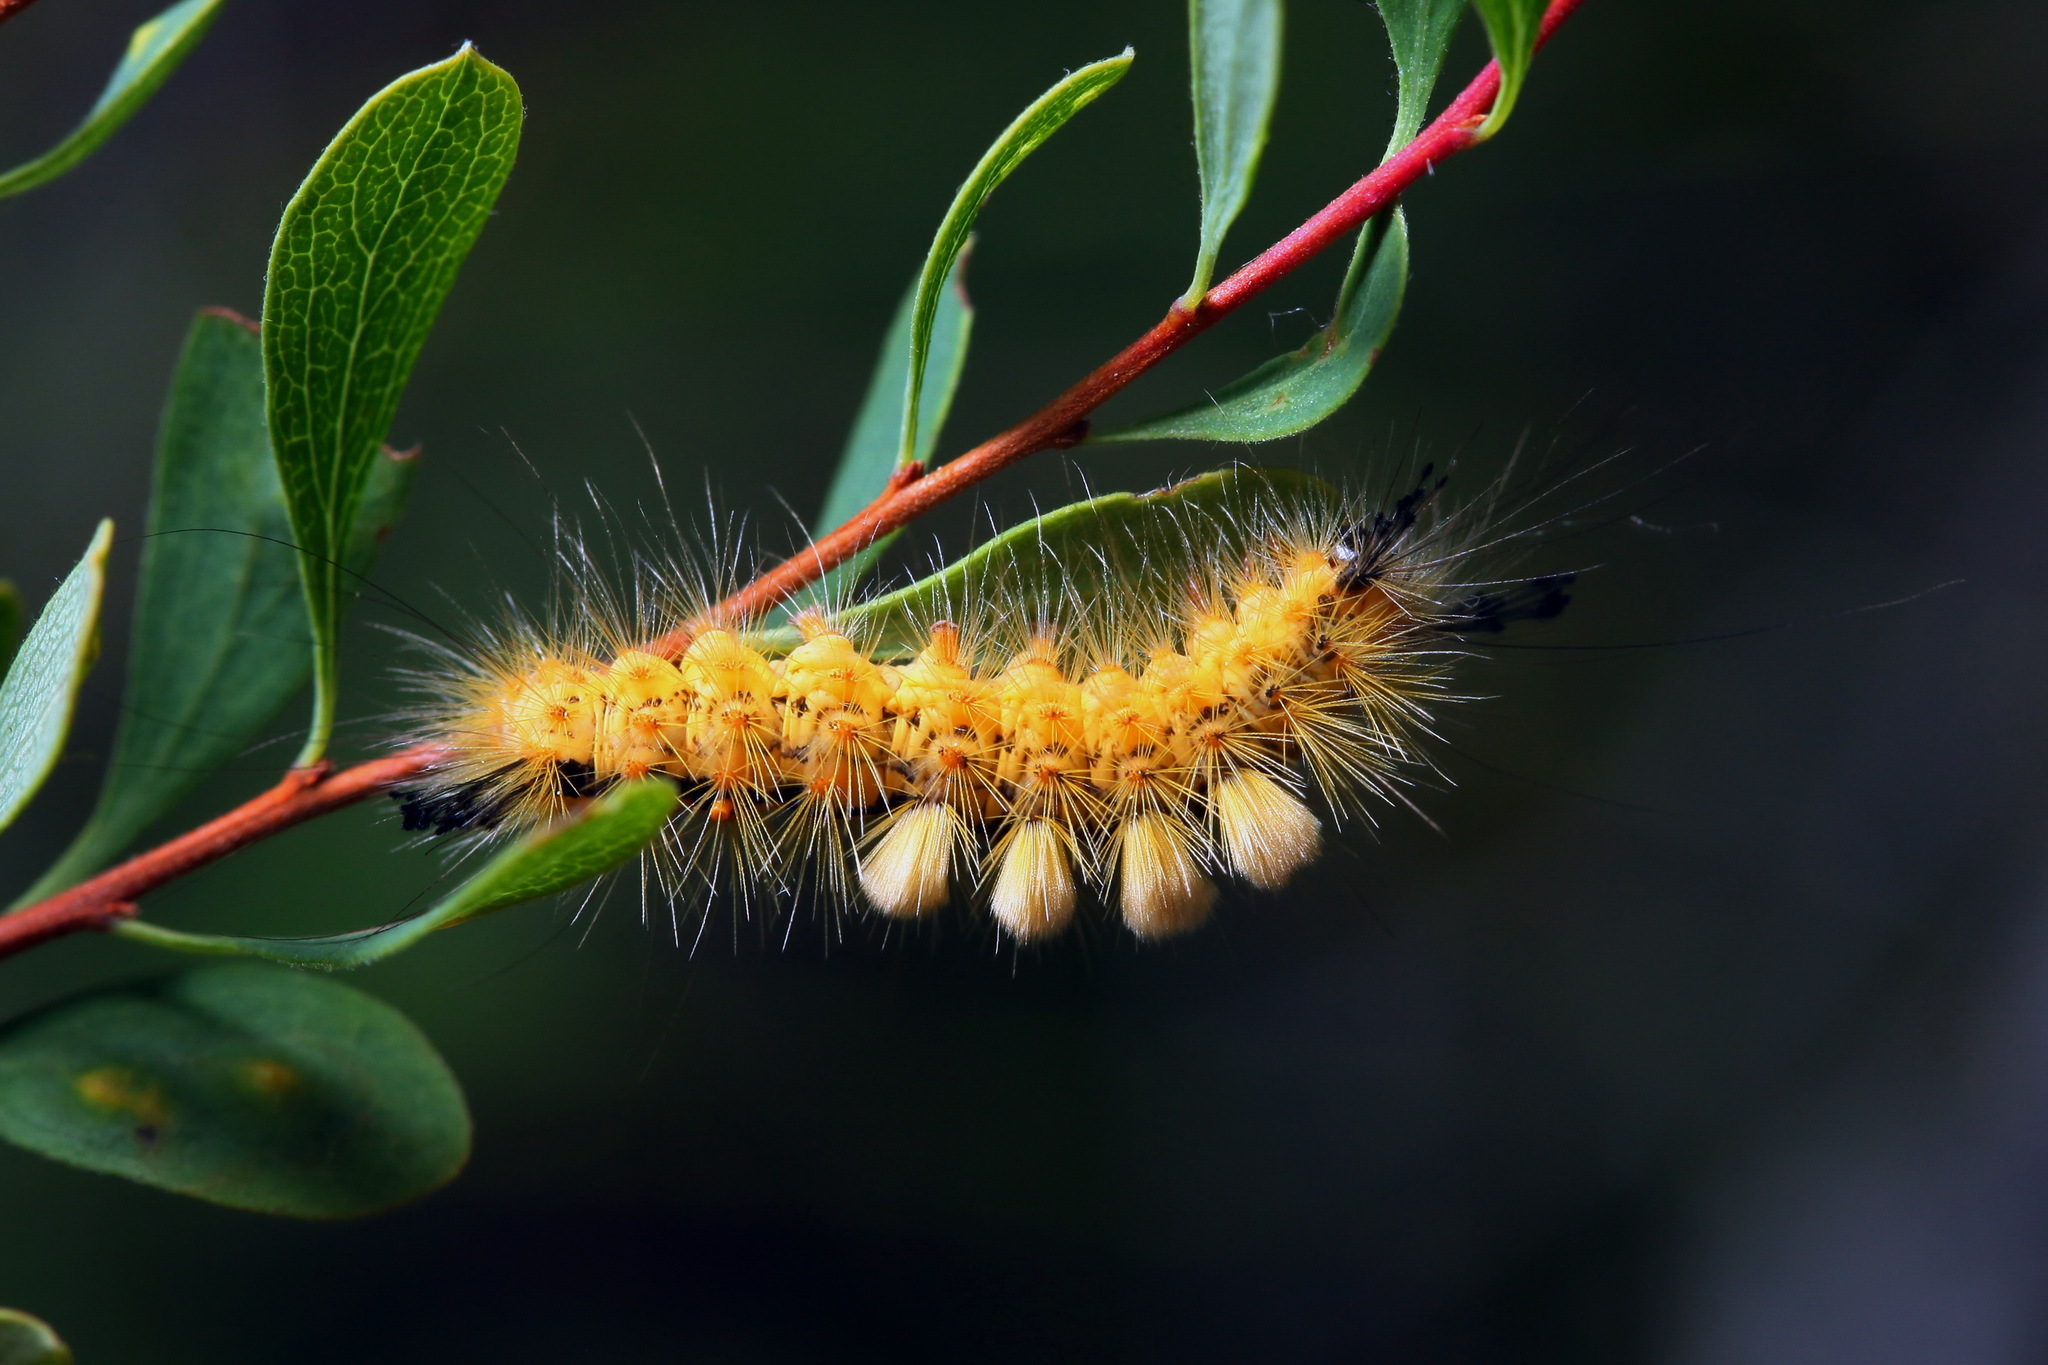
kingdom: Animalia
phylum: Arthropoda
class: Insecta
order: Lepidoptera
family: Erebidae
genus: Orgyia
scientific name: Orgyia antiquoides
